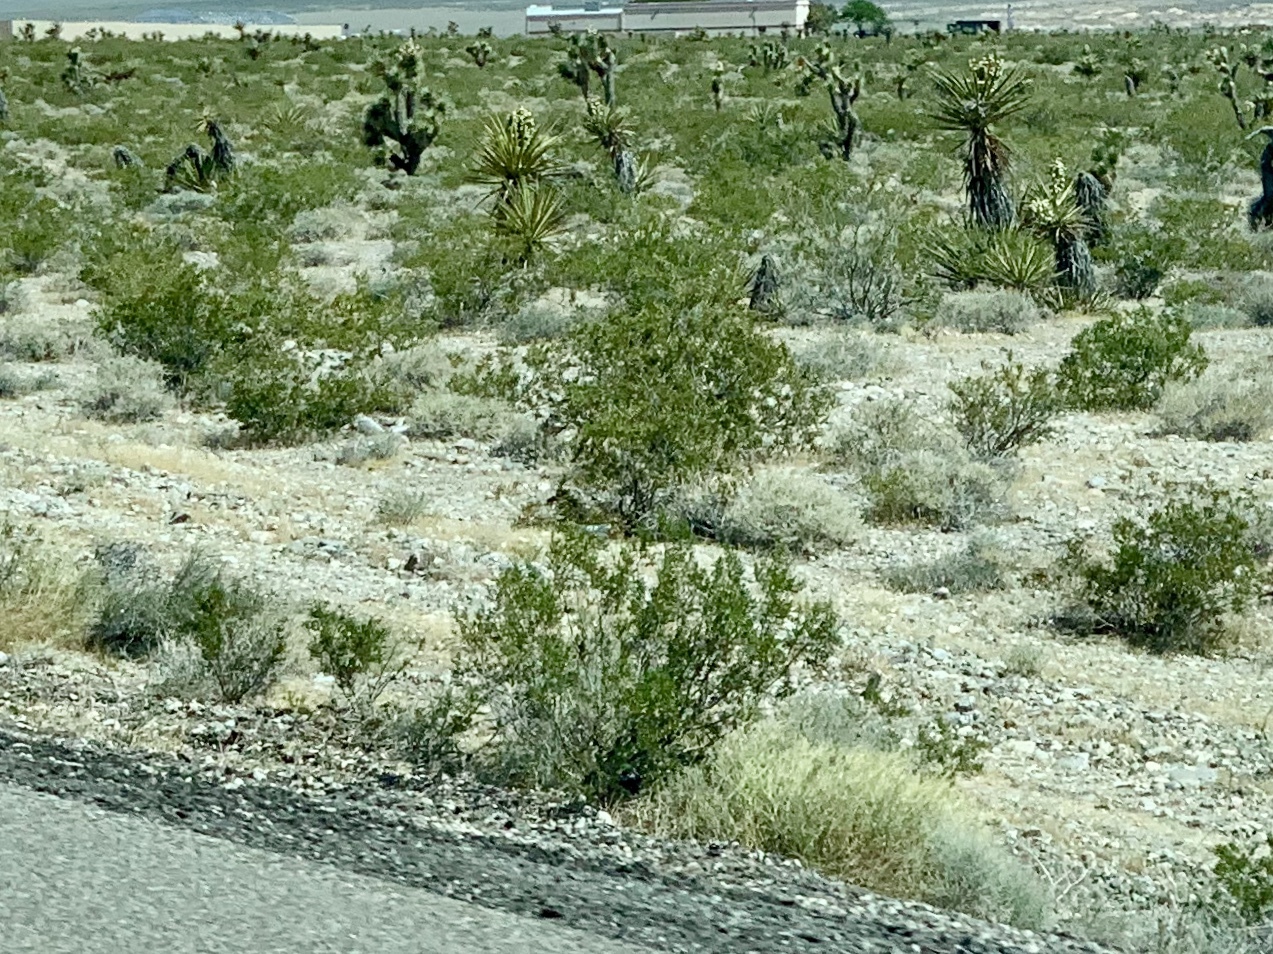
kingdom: Plantae
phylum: Tracheophyta
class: Magnoliopsida
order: Zygophyllales
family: Zygophyllaceae
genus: Larrea
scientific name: Larrea tridentata
